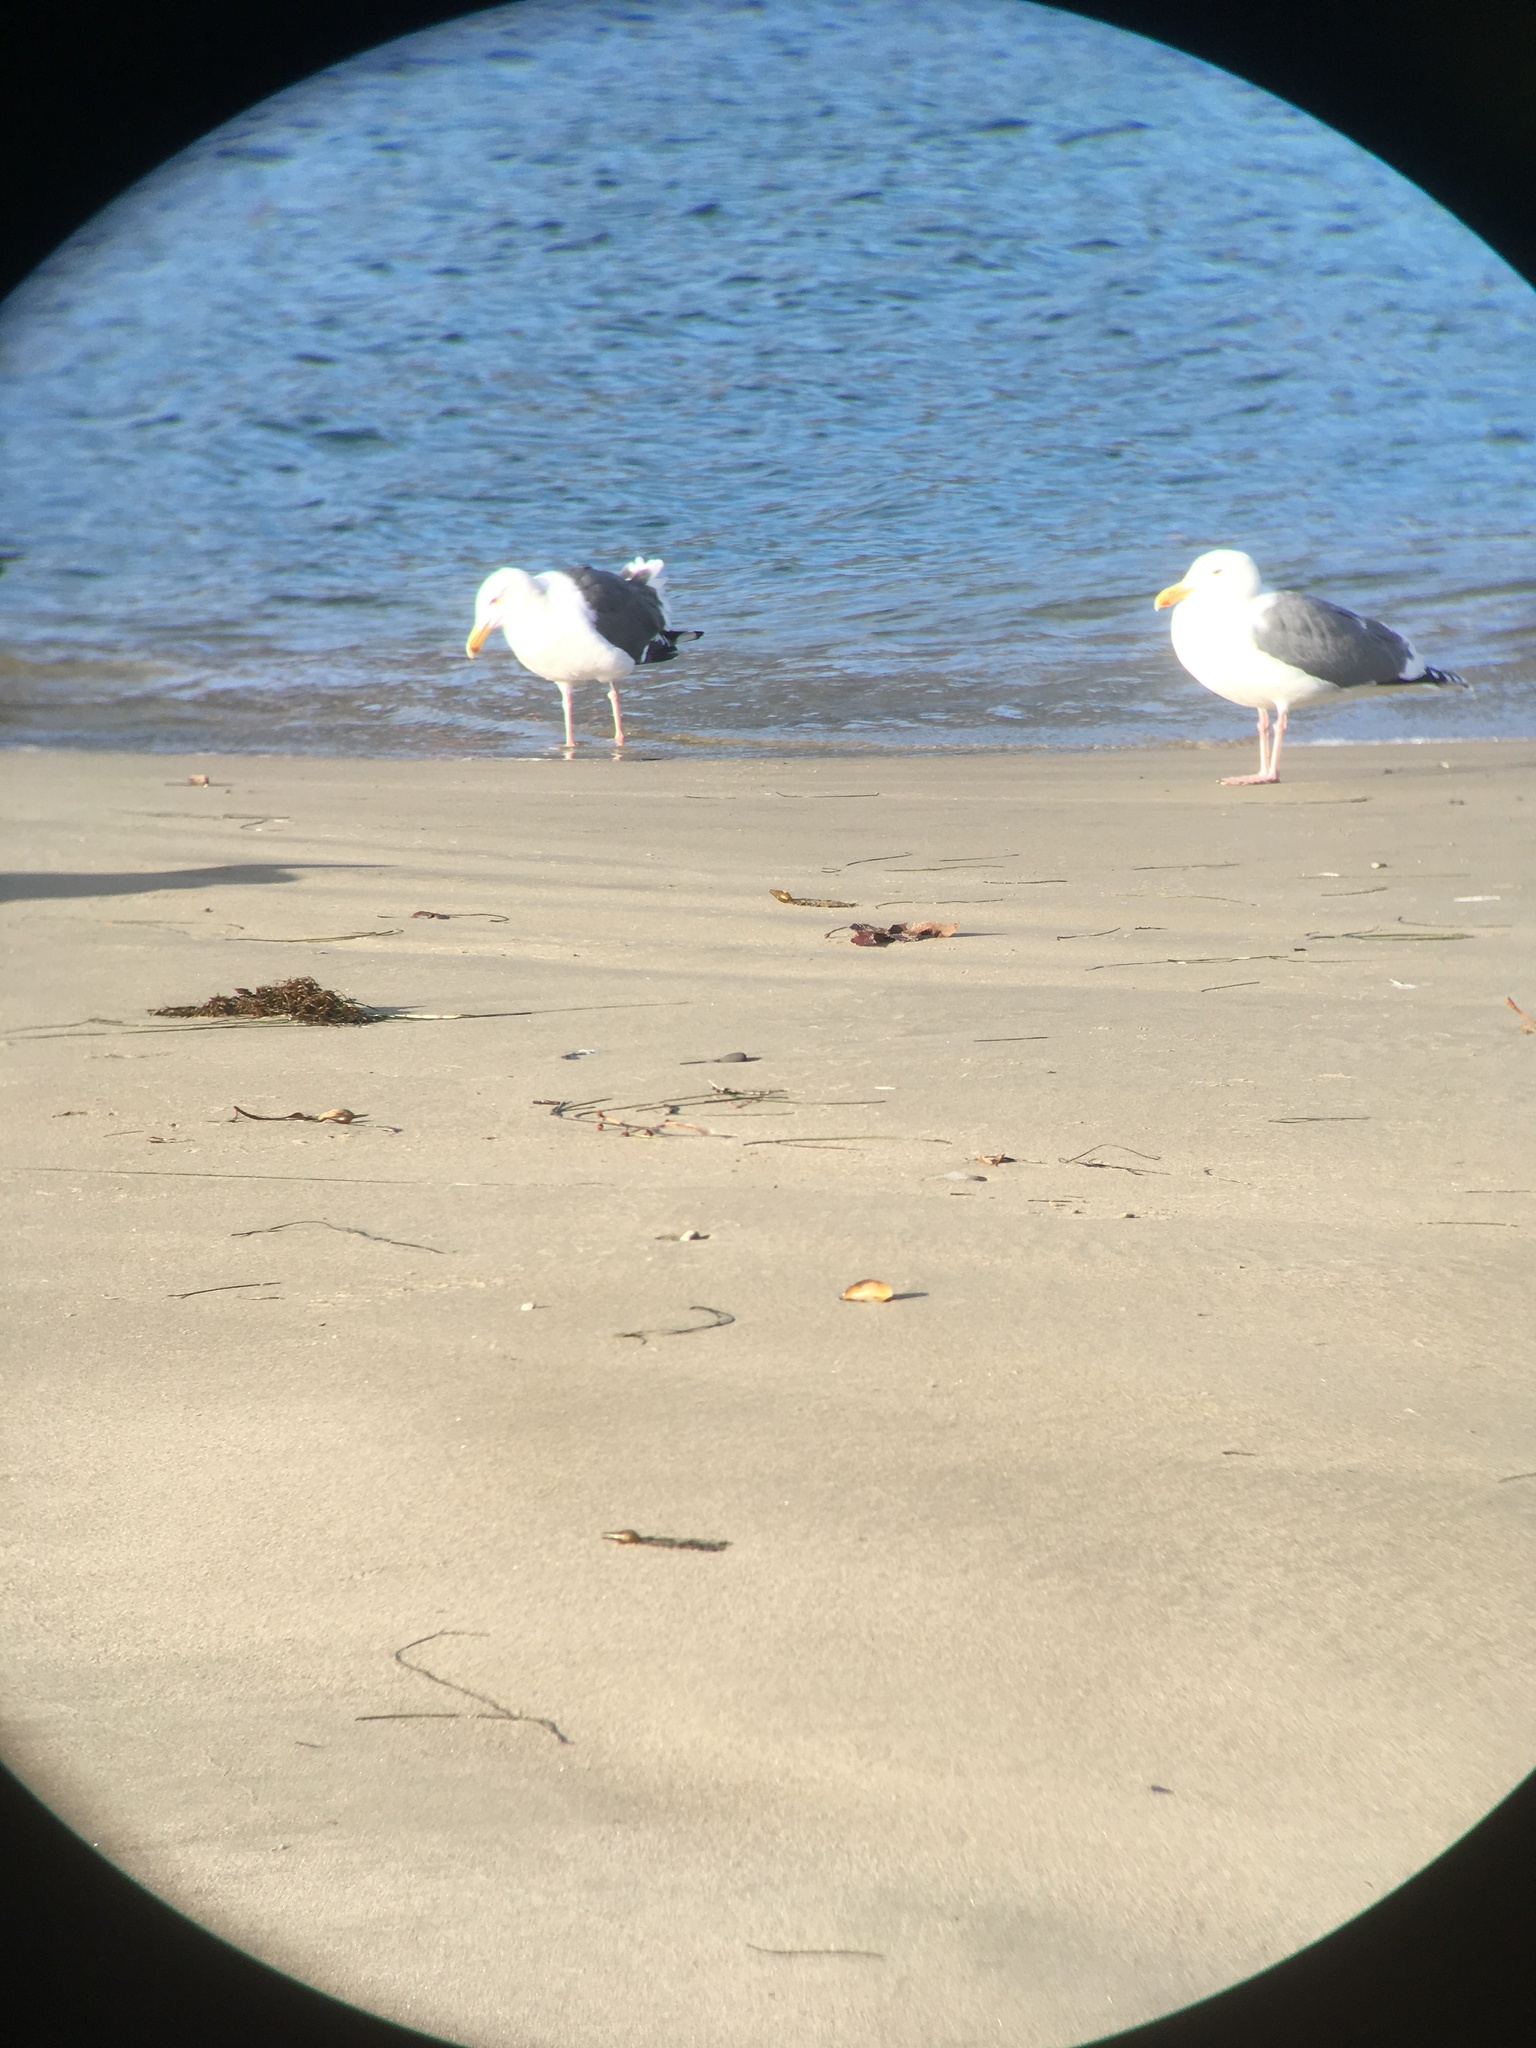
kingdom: Animalia
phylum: Chordata
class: Aves
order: Charadriiformes
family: Laridae
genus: Larus
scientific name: Larus occidentalis
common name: Western gull
